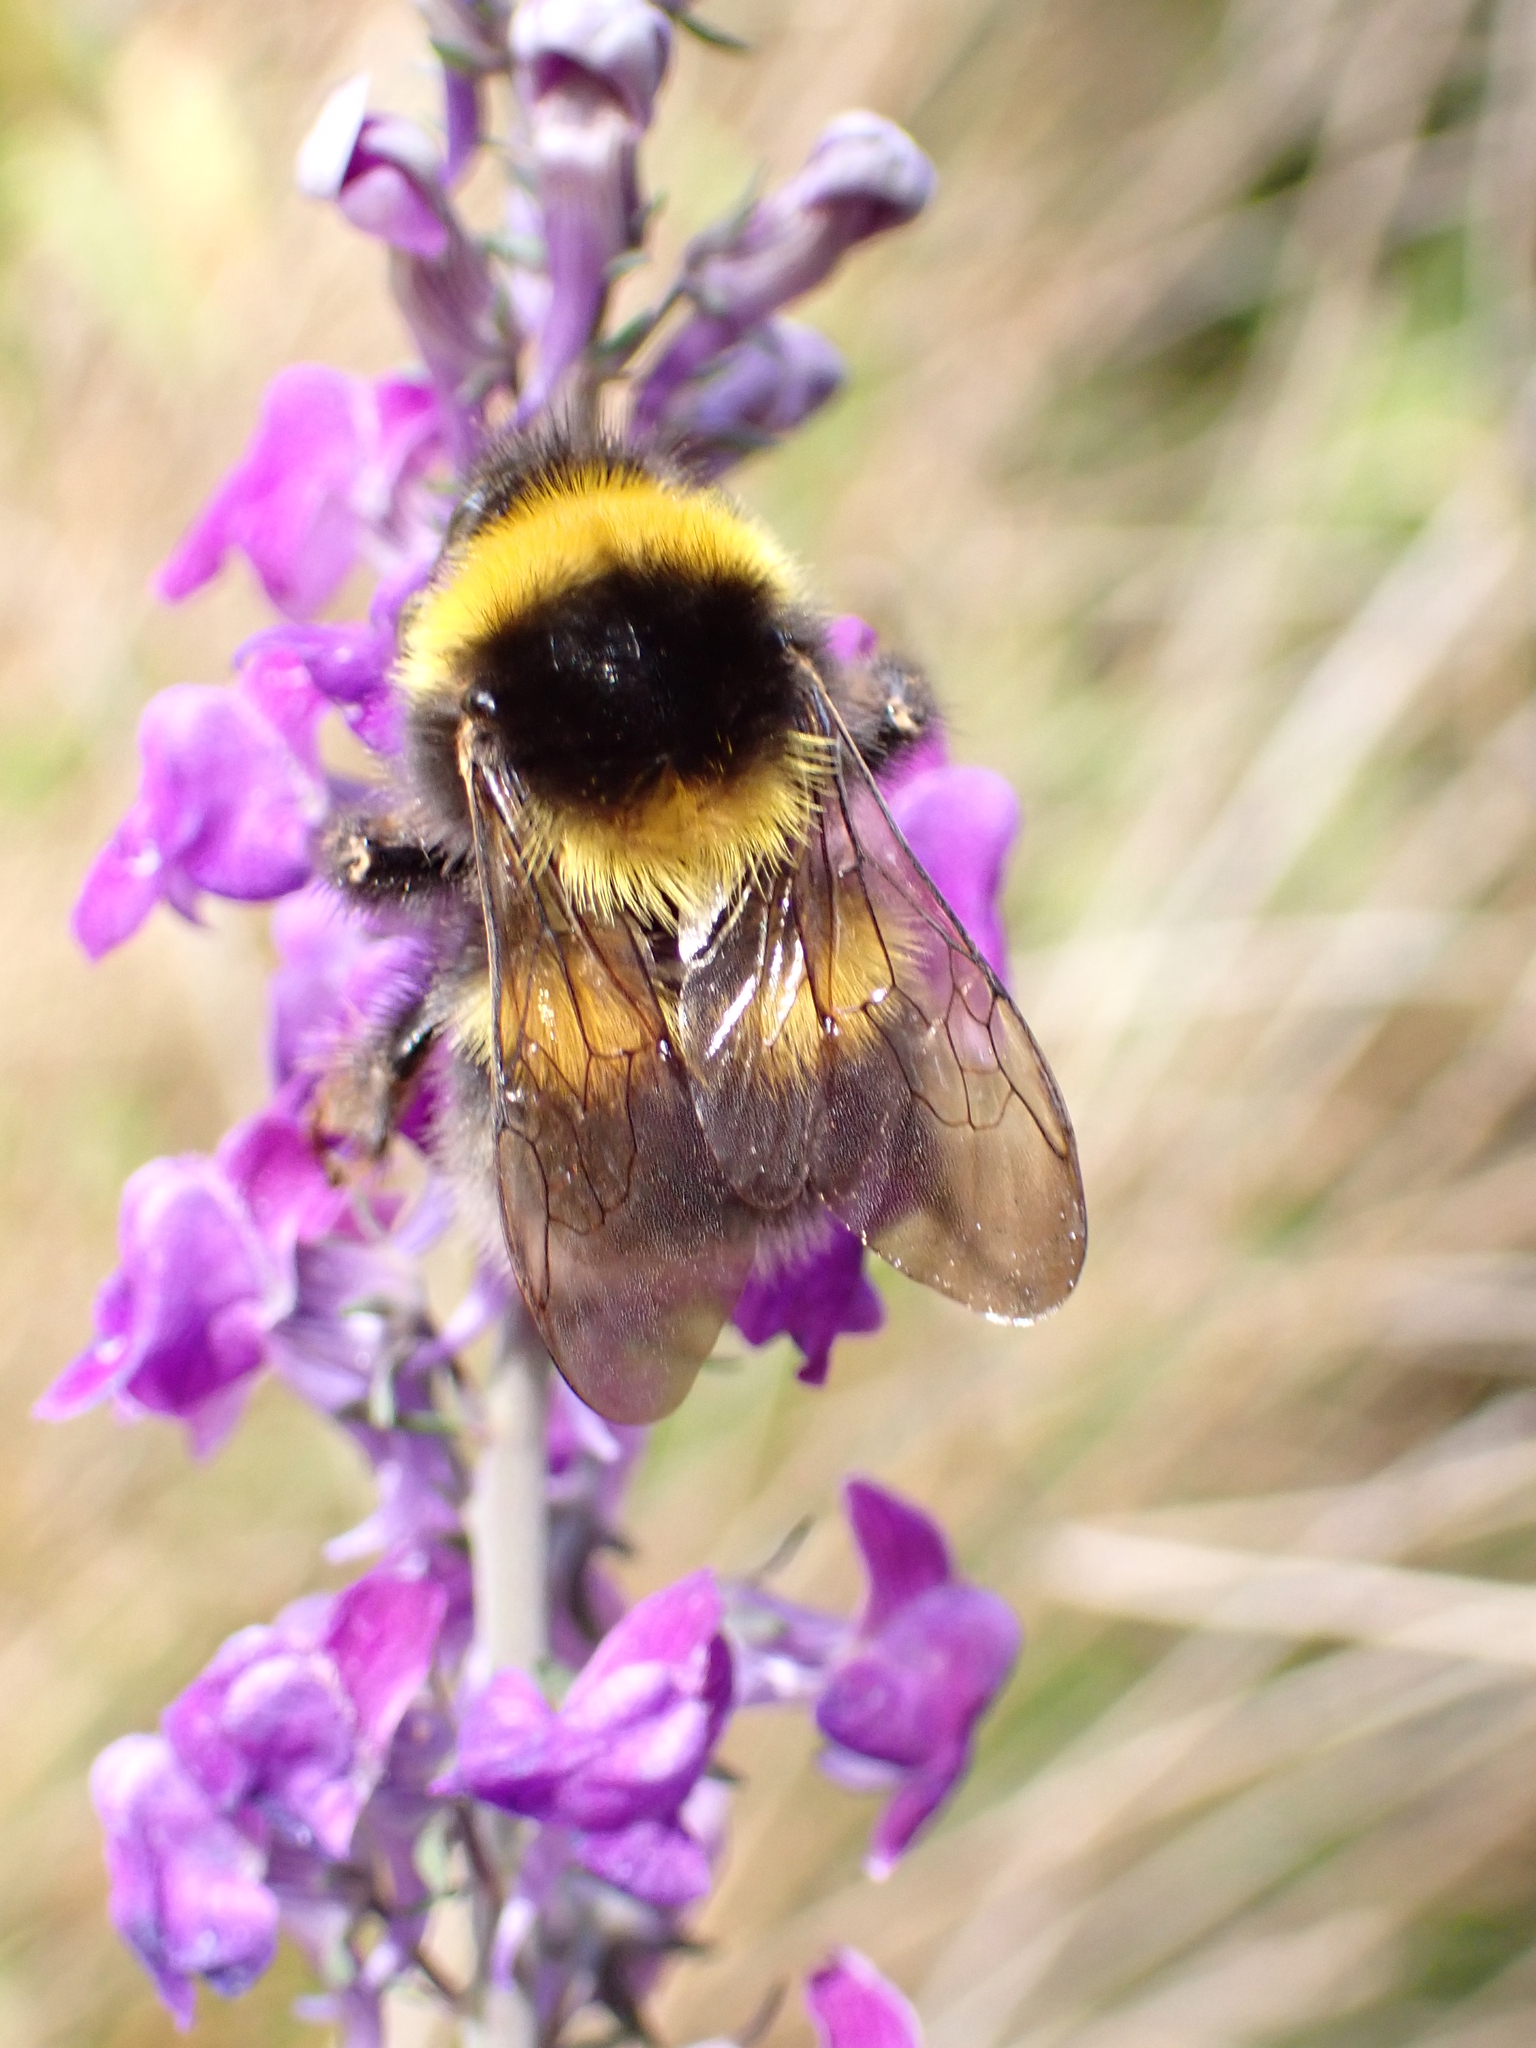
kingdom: Animalia
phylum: Arthropoda
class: Insecta
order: Hymenoptera
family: Apidae
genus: Bombus
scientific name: Bombus hortorum
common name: Garden bumblebee
